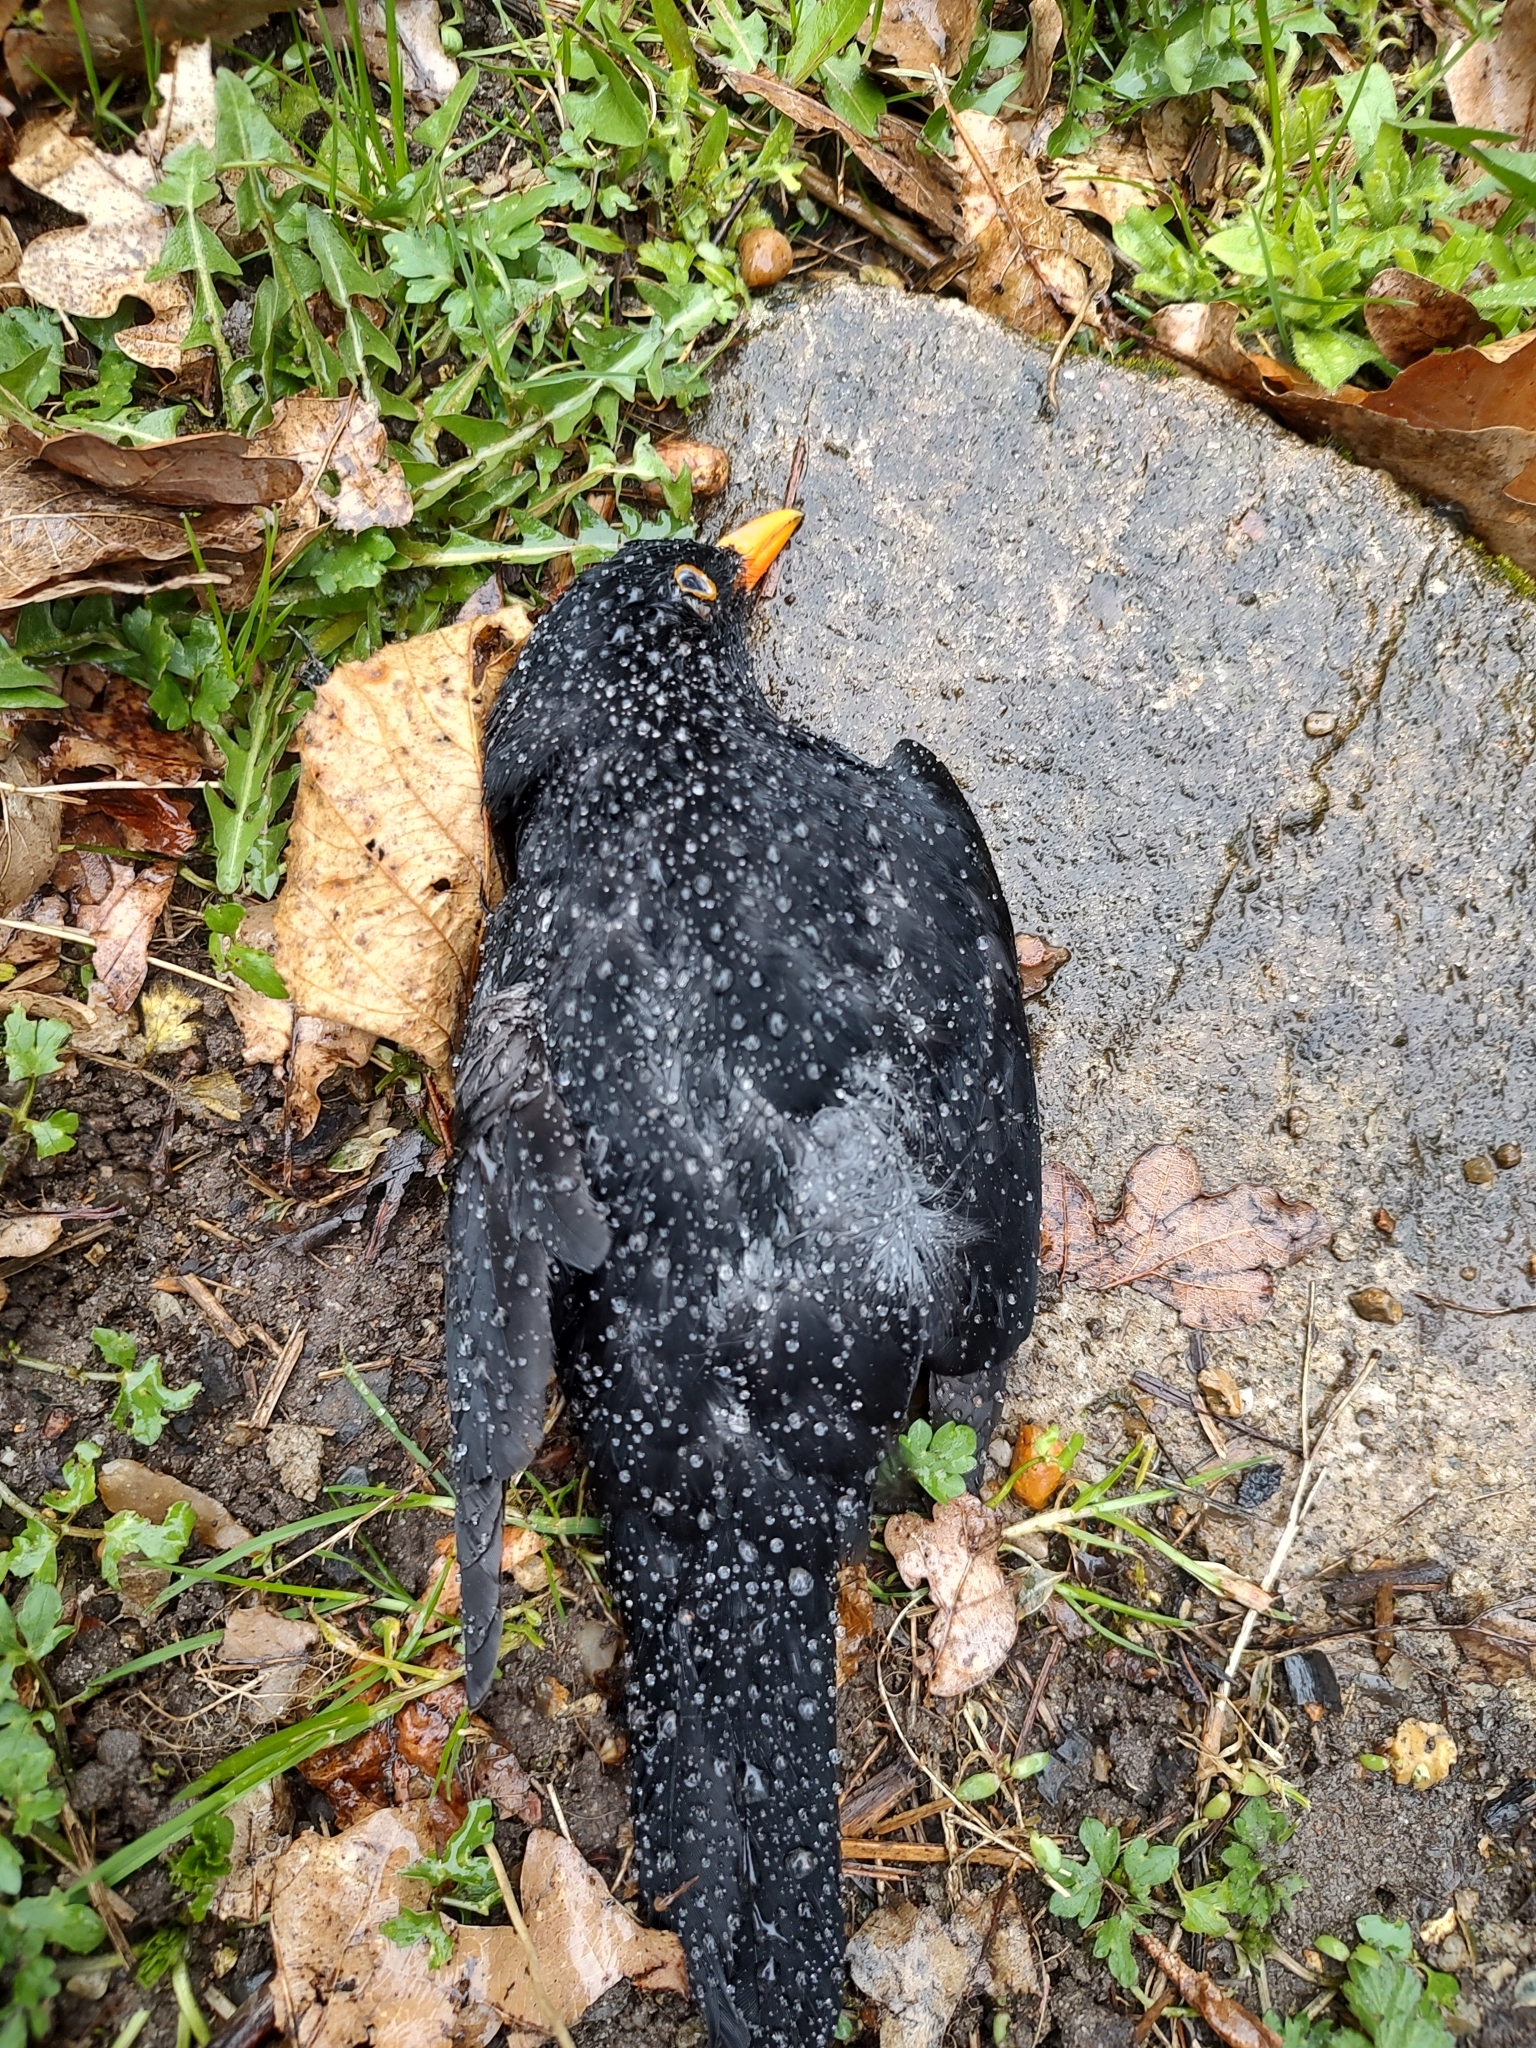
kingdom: Animalia
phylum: Chordata
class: Aves
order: Passeriformes
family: Turdidae
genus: Turdus
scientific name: Turdus merula
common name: Common blackbird
